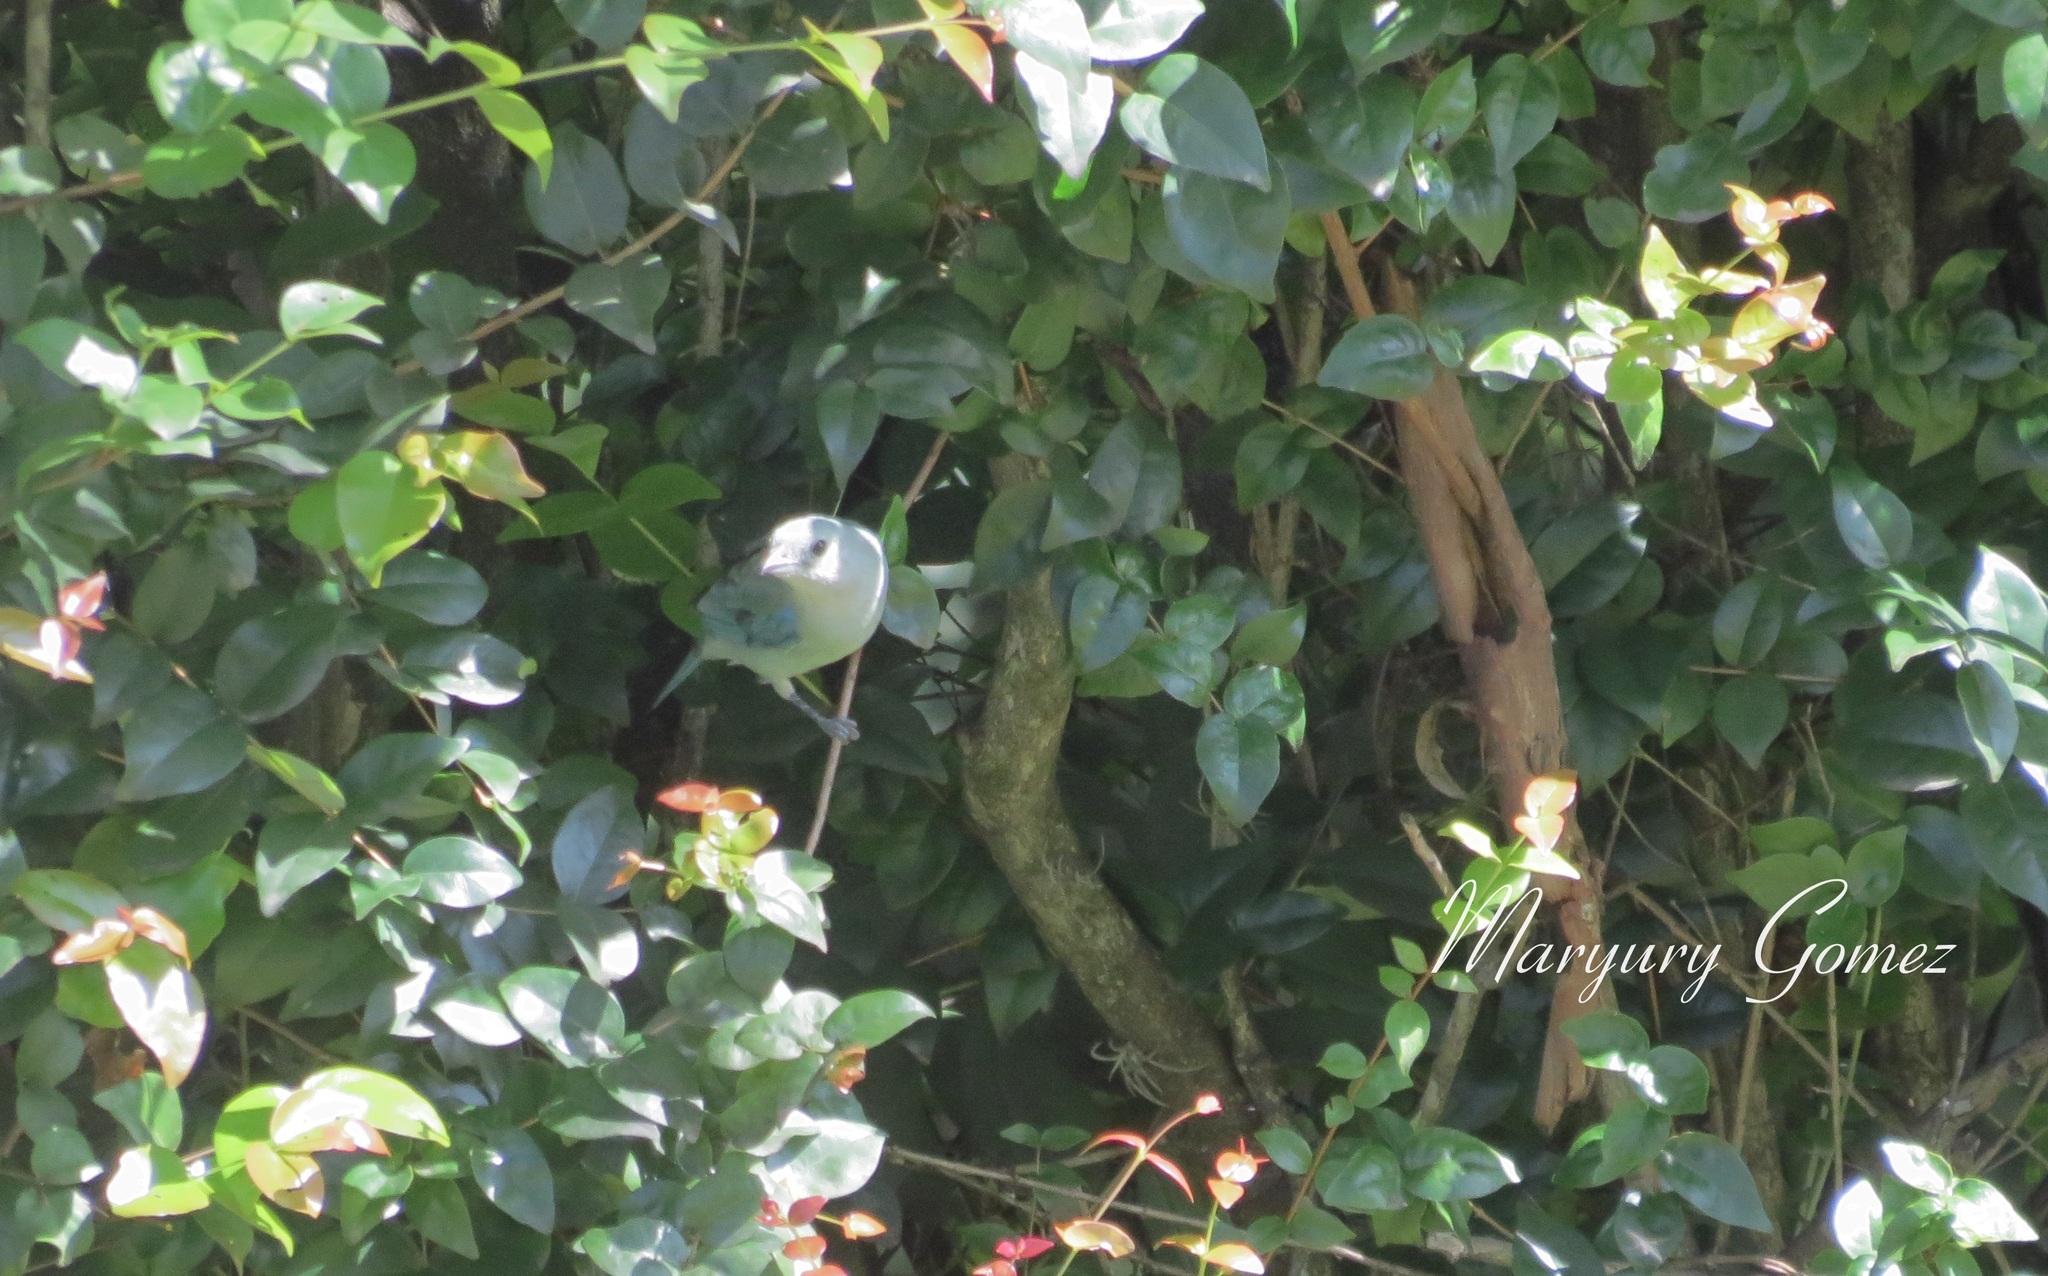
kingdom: Animalia
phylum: Chordata
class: Aves
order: Passeriformes
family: Thraupidae
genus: Thraupis
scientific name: Thraupis episcopus
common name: Blue-grey tanager
